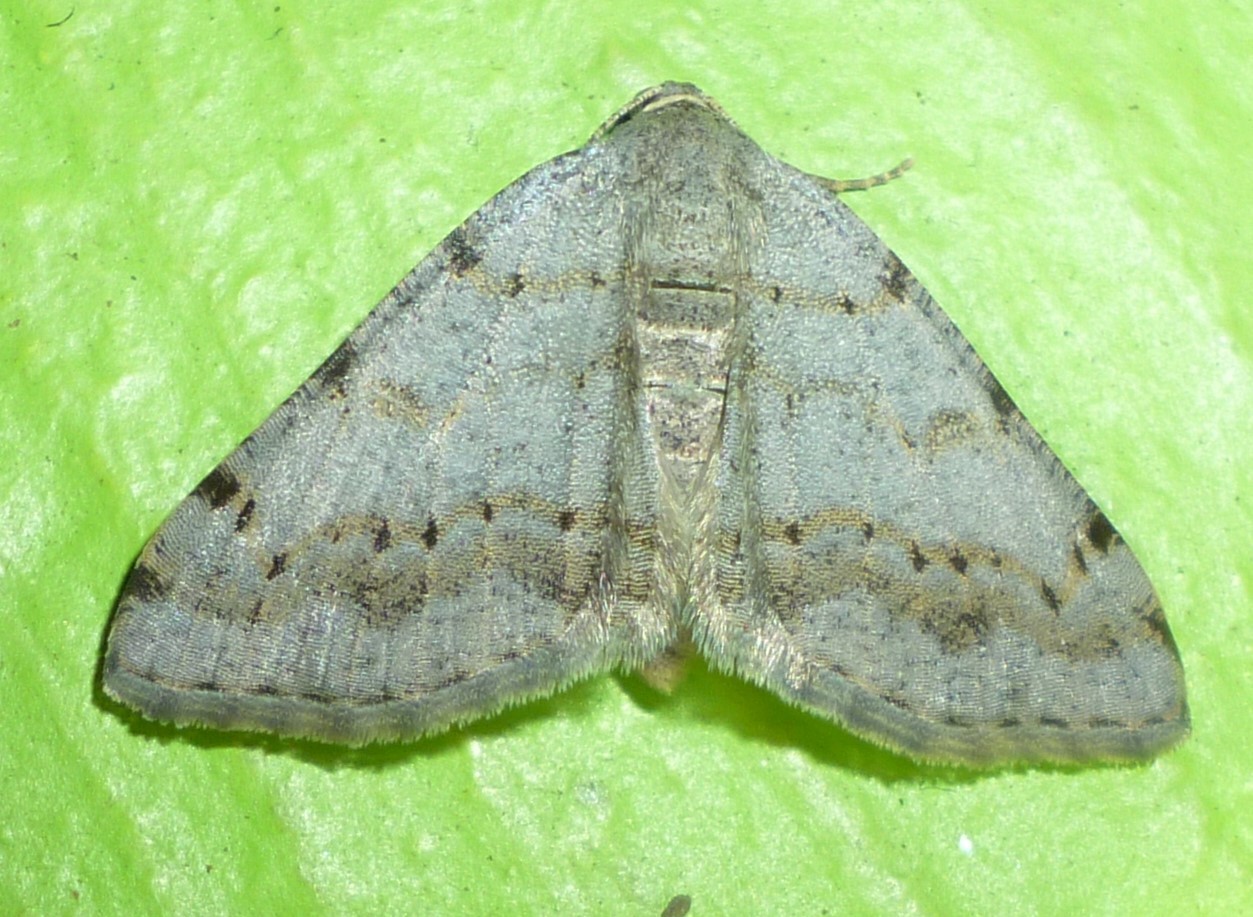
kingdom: Animalia
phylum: Arthropoda
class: Insecta
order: Lepidoptera
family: Geometridae
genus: Digrammia
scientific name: Digrammia ocellinata
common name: Faint-spotted angle
